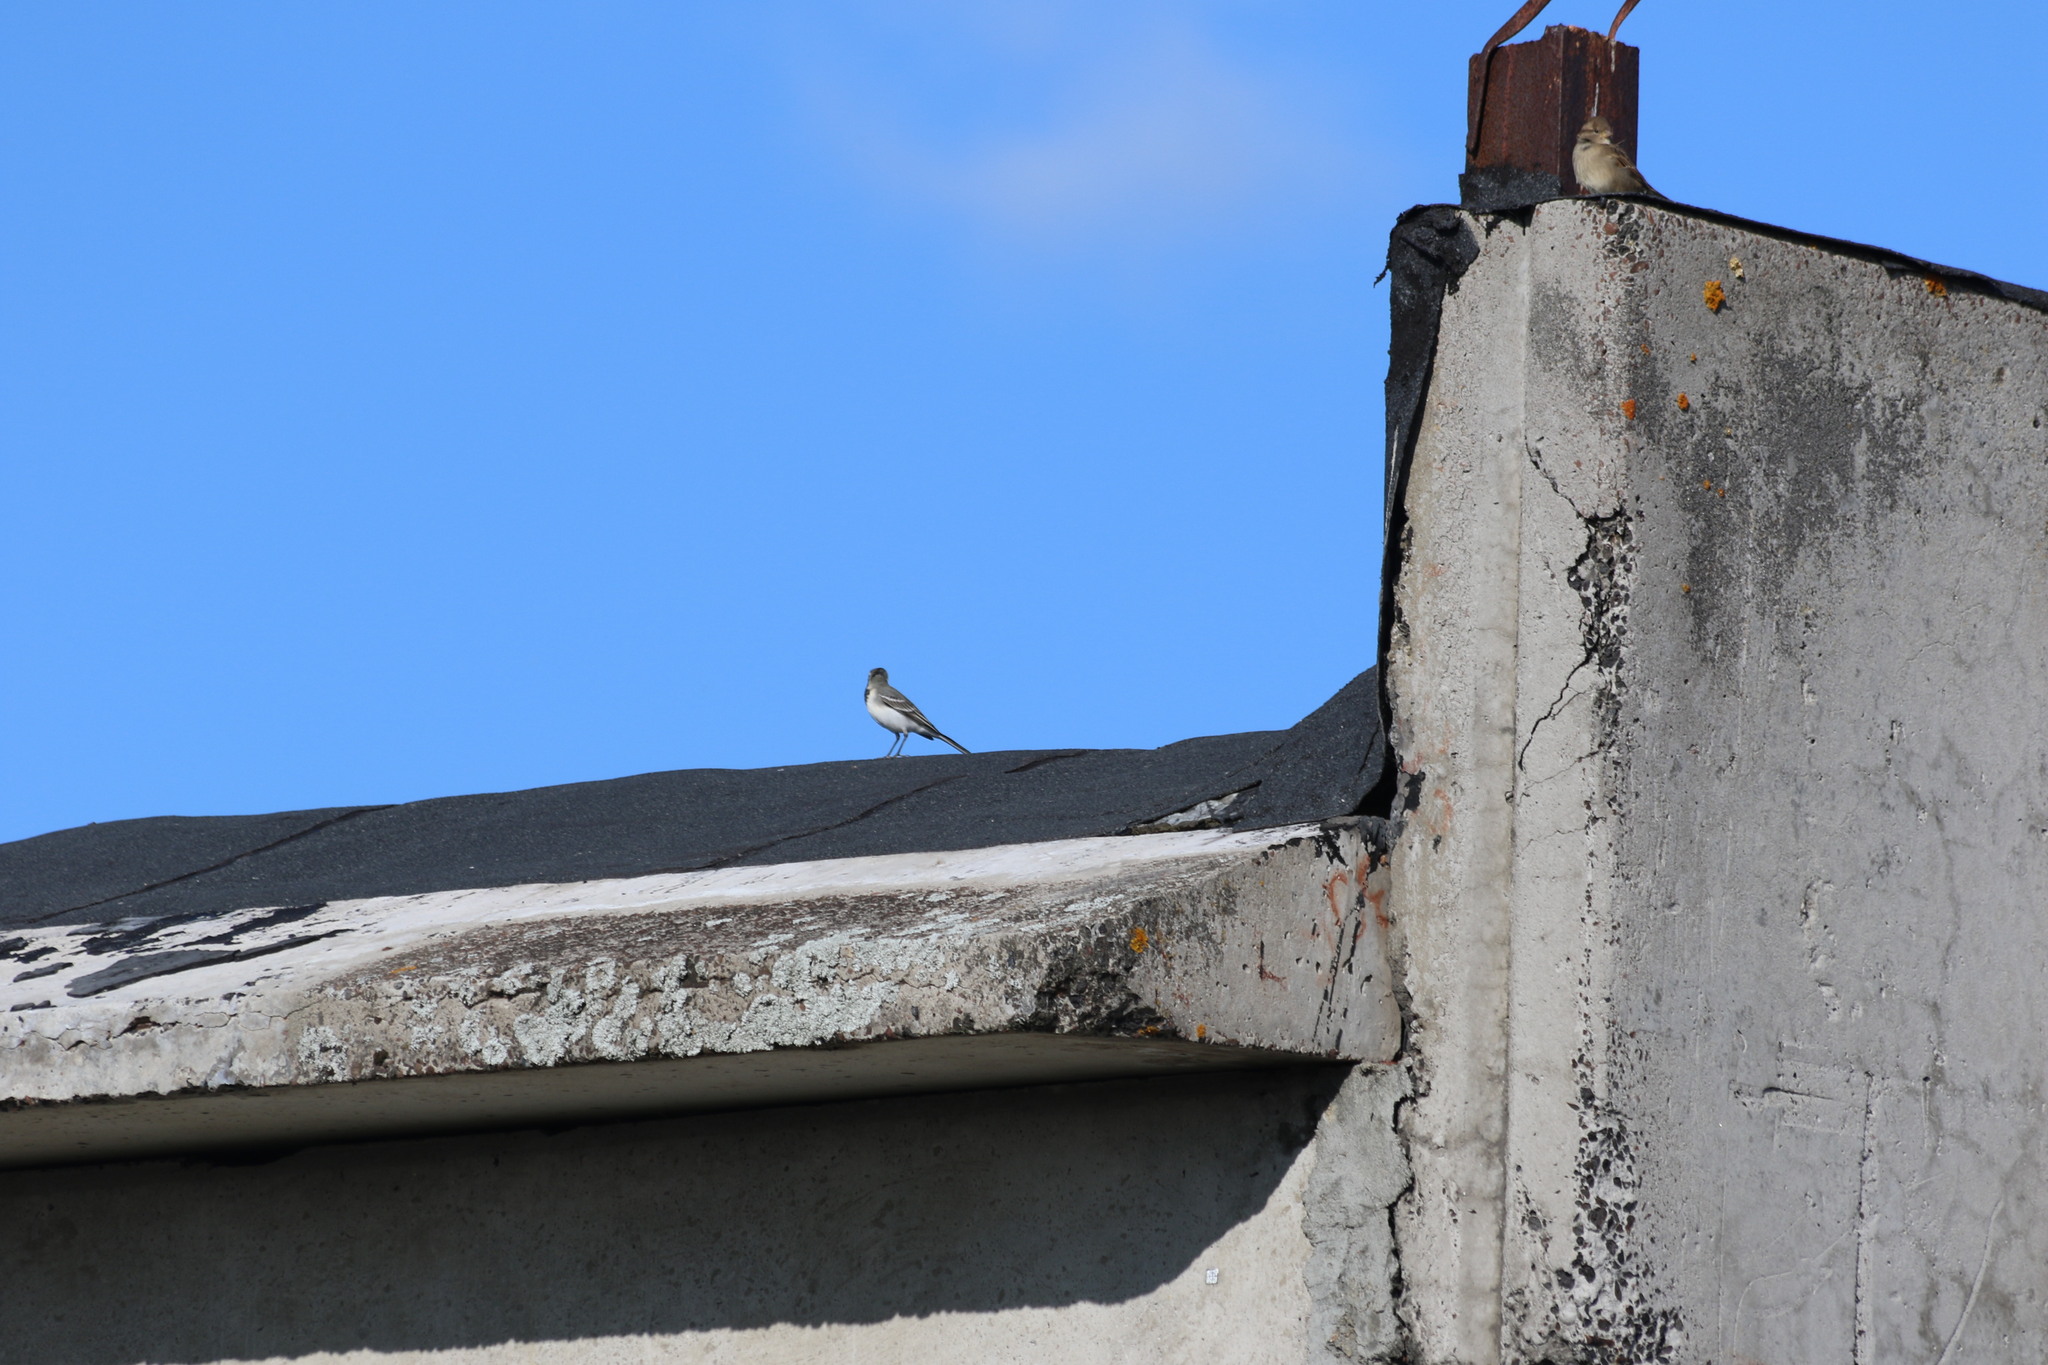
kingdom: Animalia
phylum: Chordata
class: Aves
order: Passeriformes
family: Motacillidae
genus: Motacilla
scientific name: Motacilla alba
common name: White wagtail
